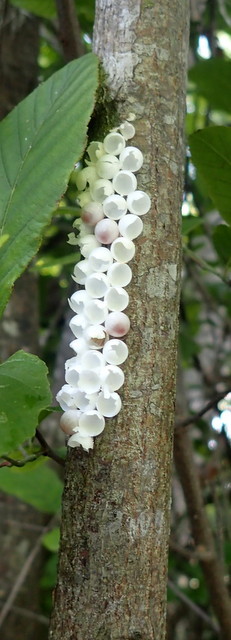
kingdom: Animalia
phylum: Mollusca
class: Gastropoda
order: Architaenioglossa
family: Ampullariidae
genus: Pomacea
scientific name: Pomacea paludosa
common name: Florida applesnail
